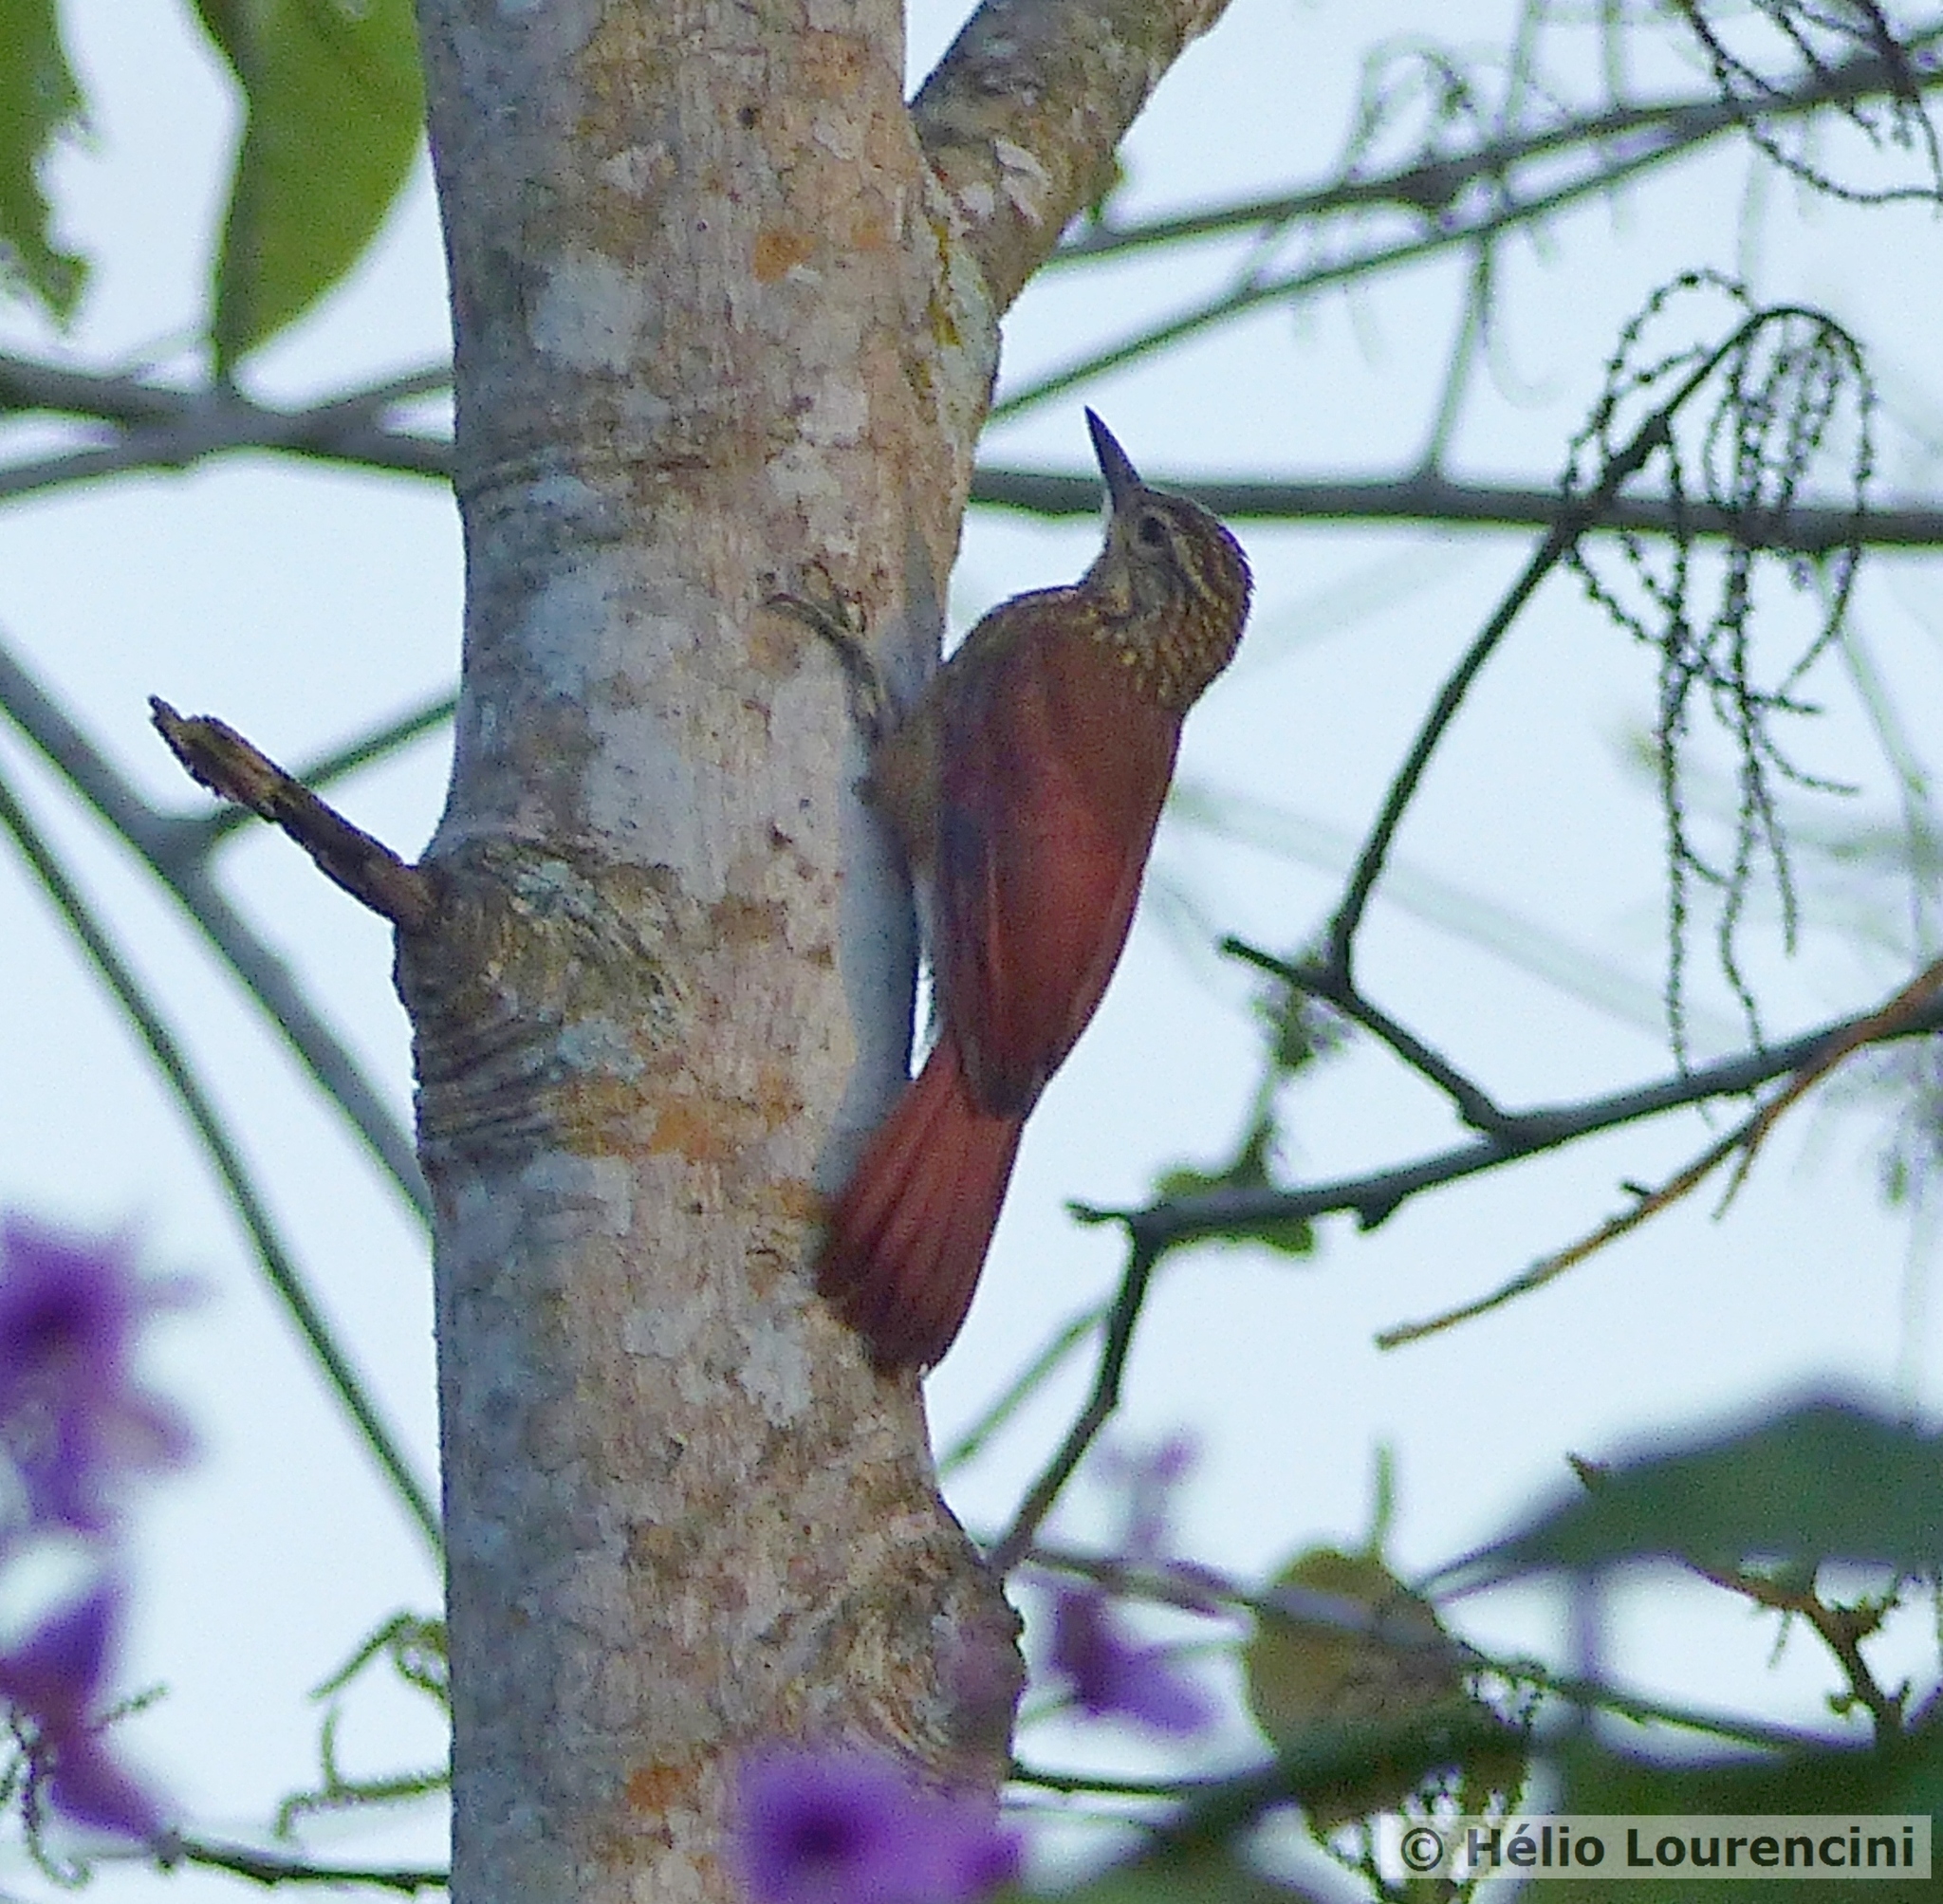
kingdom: Animalia
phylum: Chordata
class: Aves
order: Passeriformes
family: Furnariidae
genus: Xiphorhynchus
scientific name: Xiphorhynchus picus
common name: Straight-billed woodcreeper
